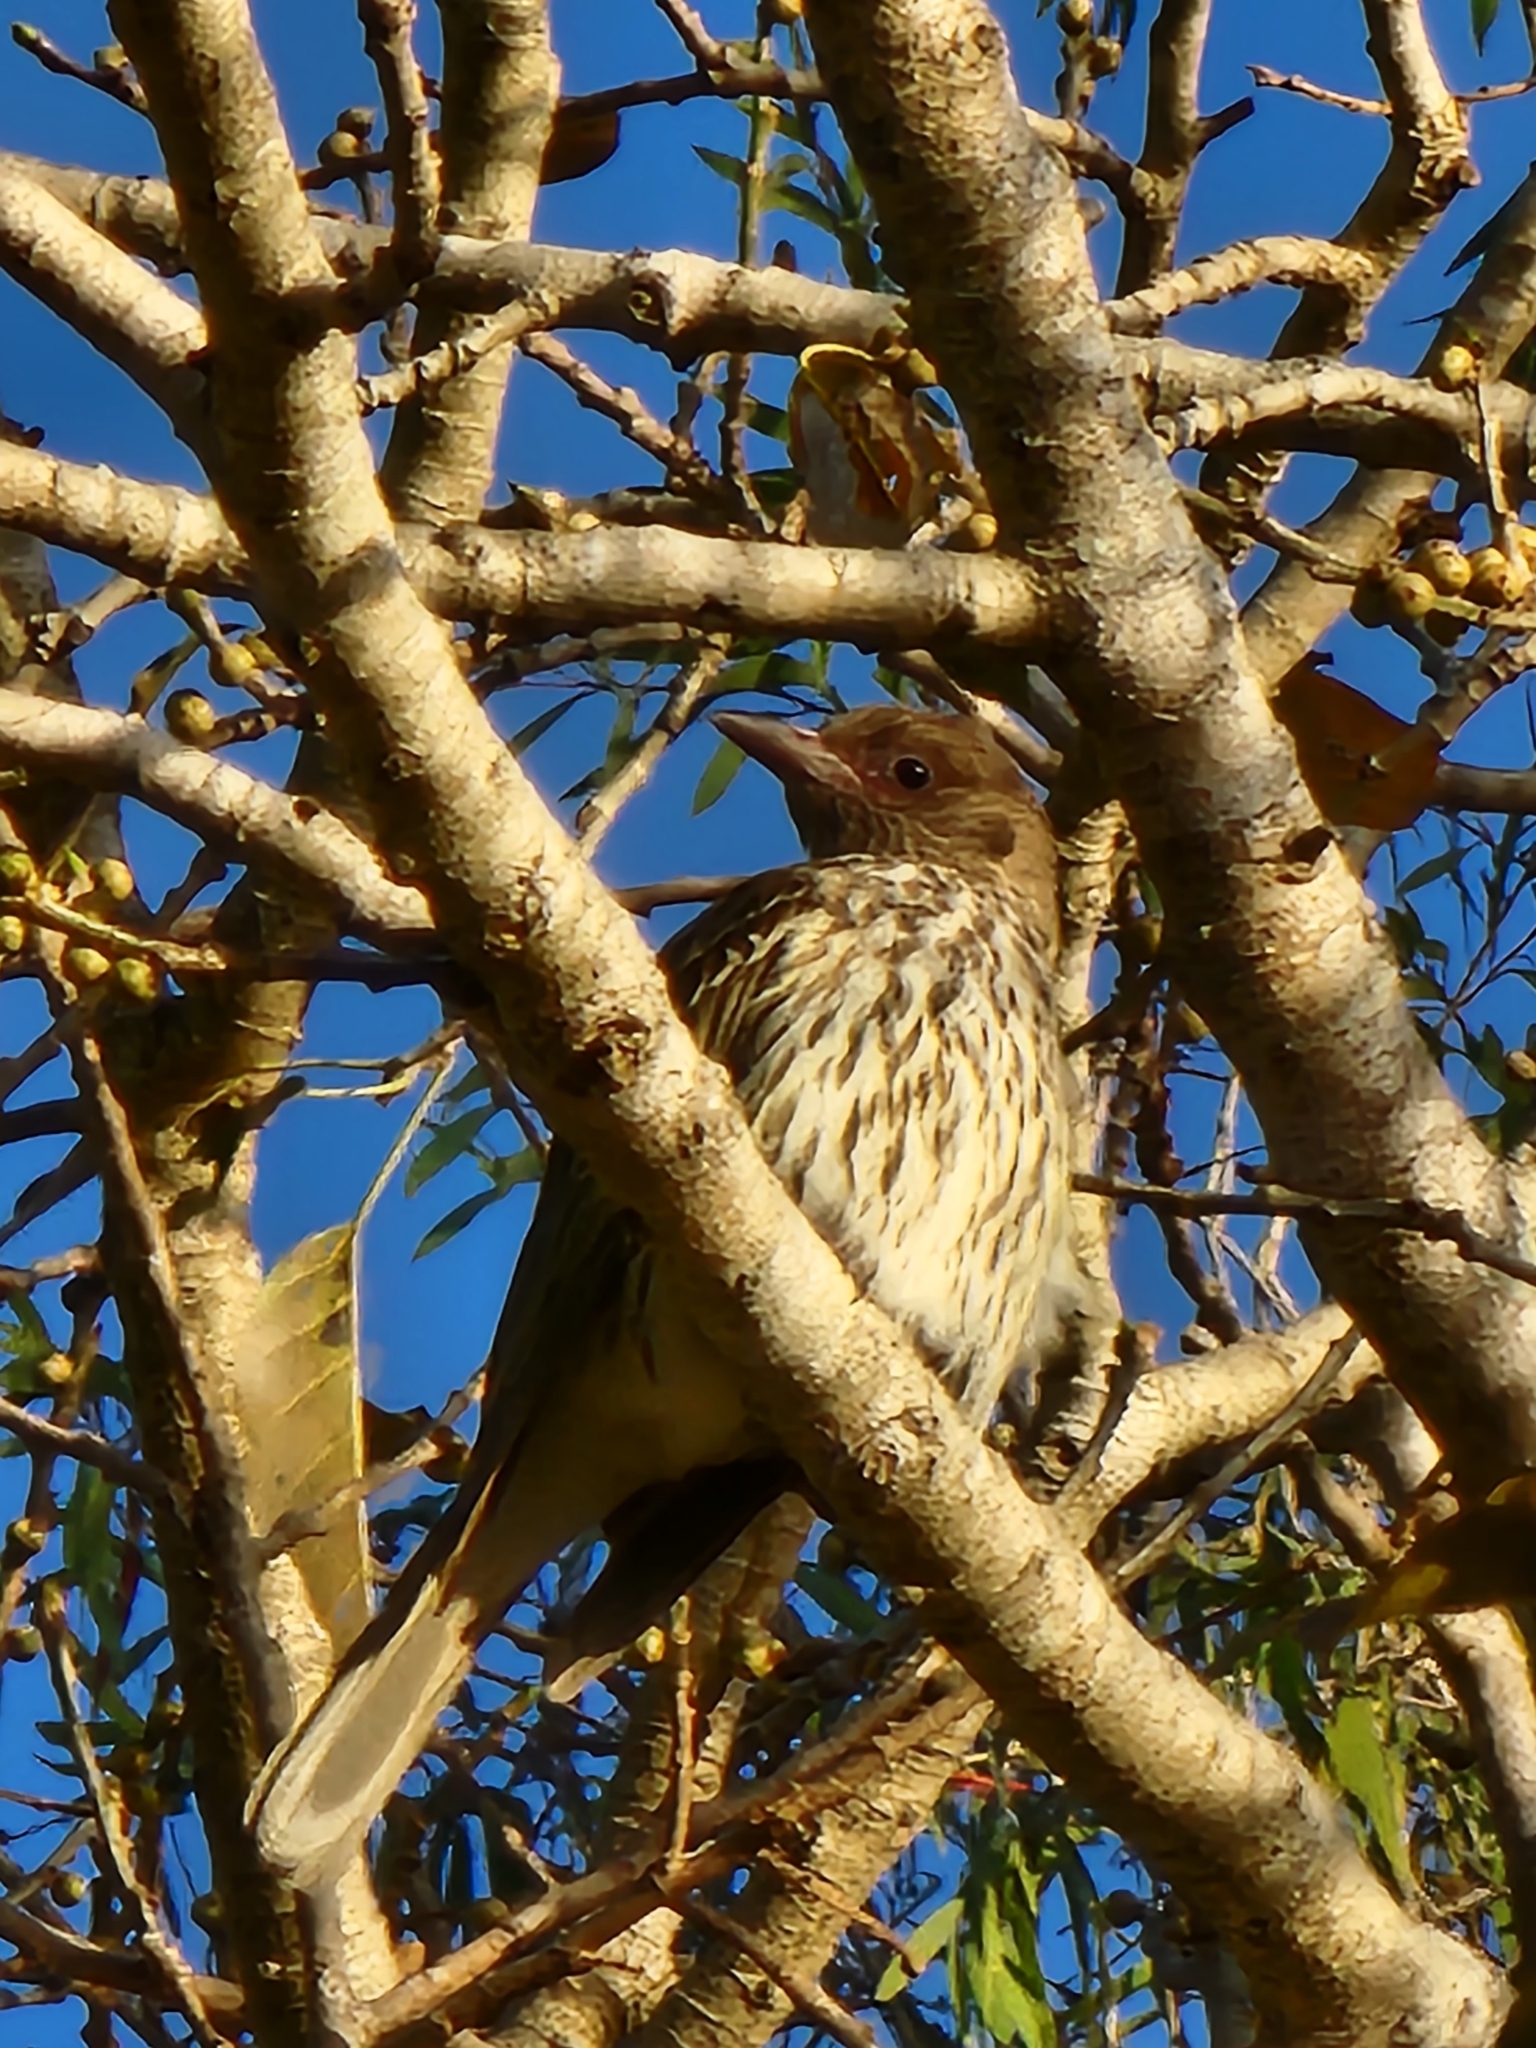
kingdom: Animalia
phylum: Chordata
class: Aves
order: Passeriformes
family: Oriolidae
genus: Sphecotheres
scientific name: Sphecotheres vieilloti
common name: Australasian figbird
